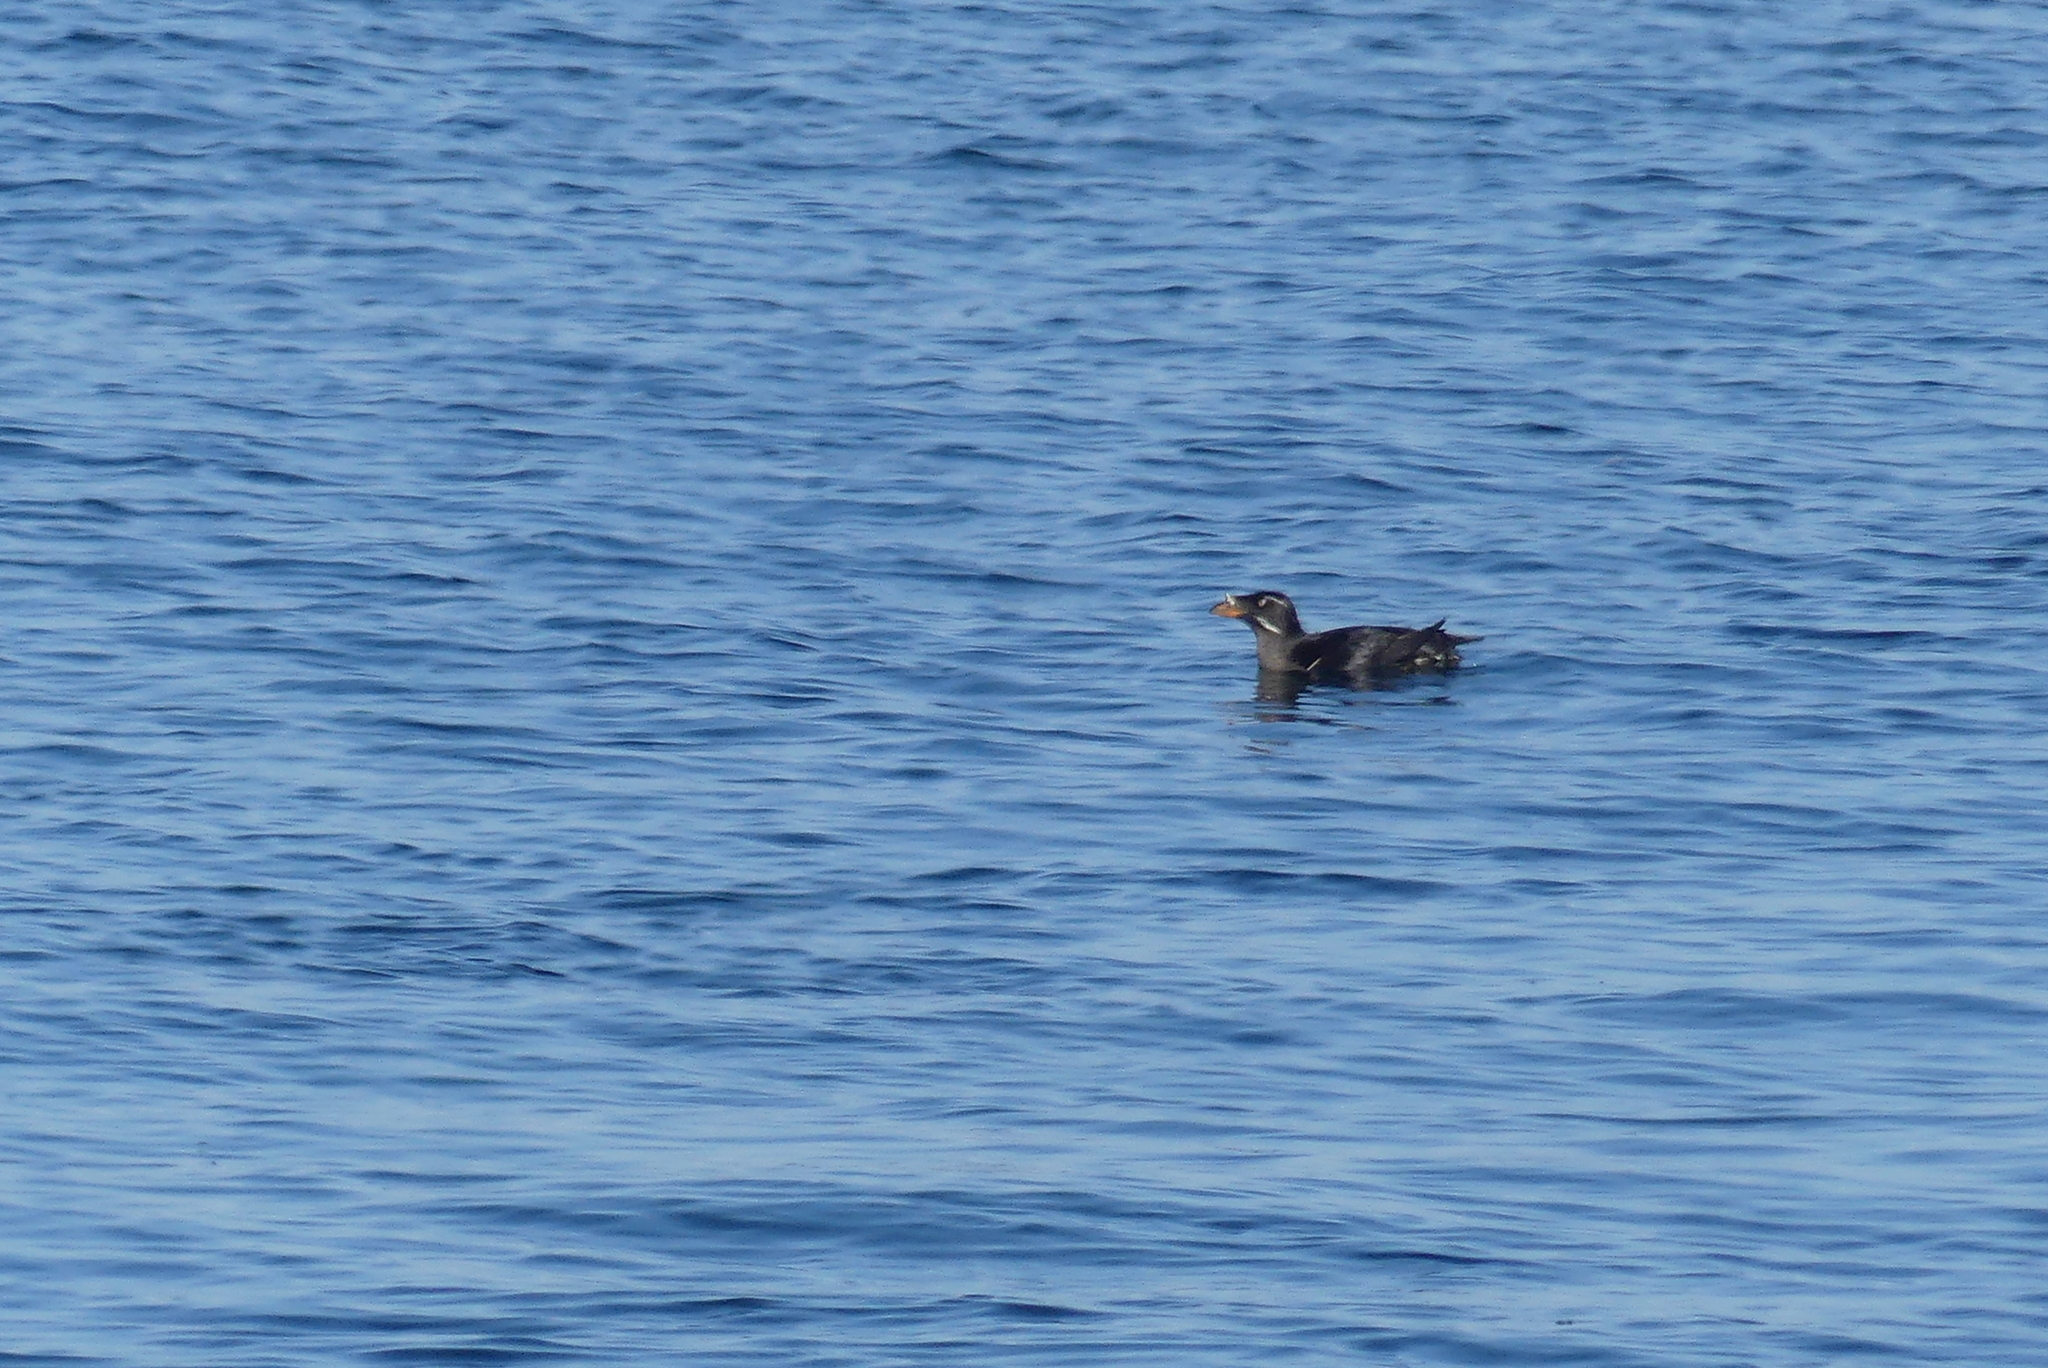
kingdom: Animalia
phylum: Chordata
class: Aves
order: Charadriiformes
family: Alcidae
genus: Cerorhinca
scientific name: Cerorhinca monocerata
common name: Rhinoceros auklet
